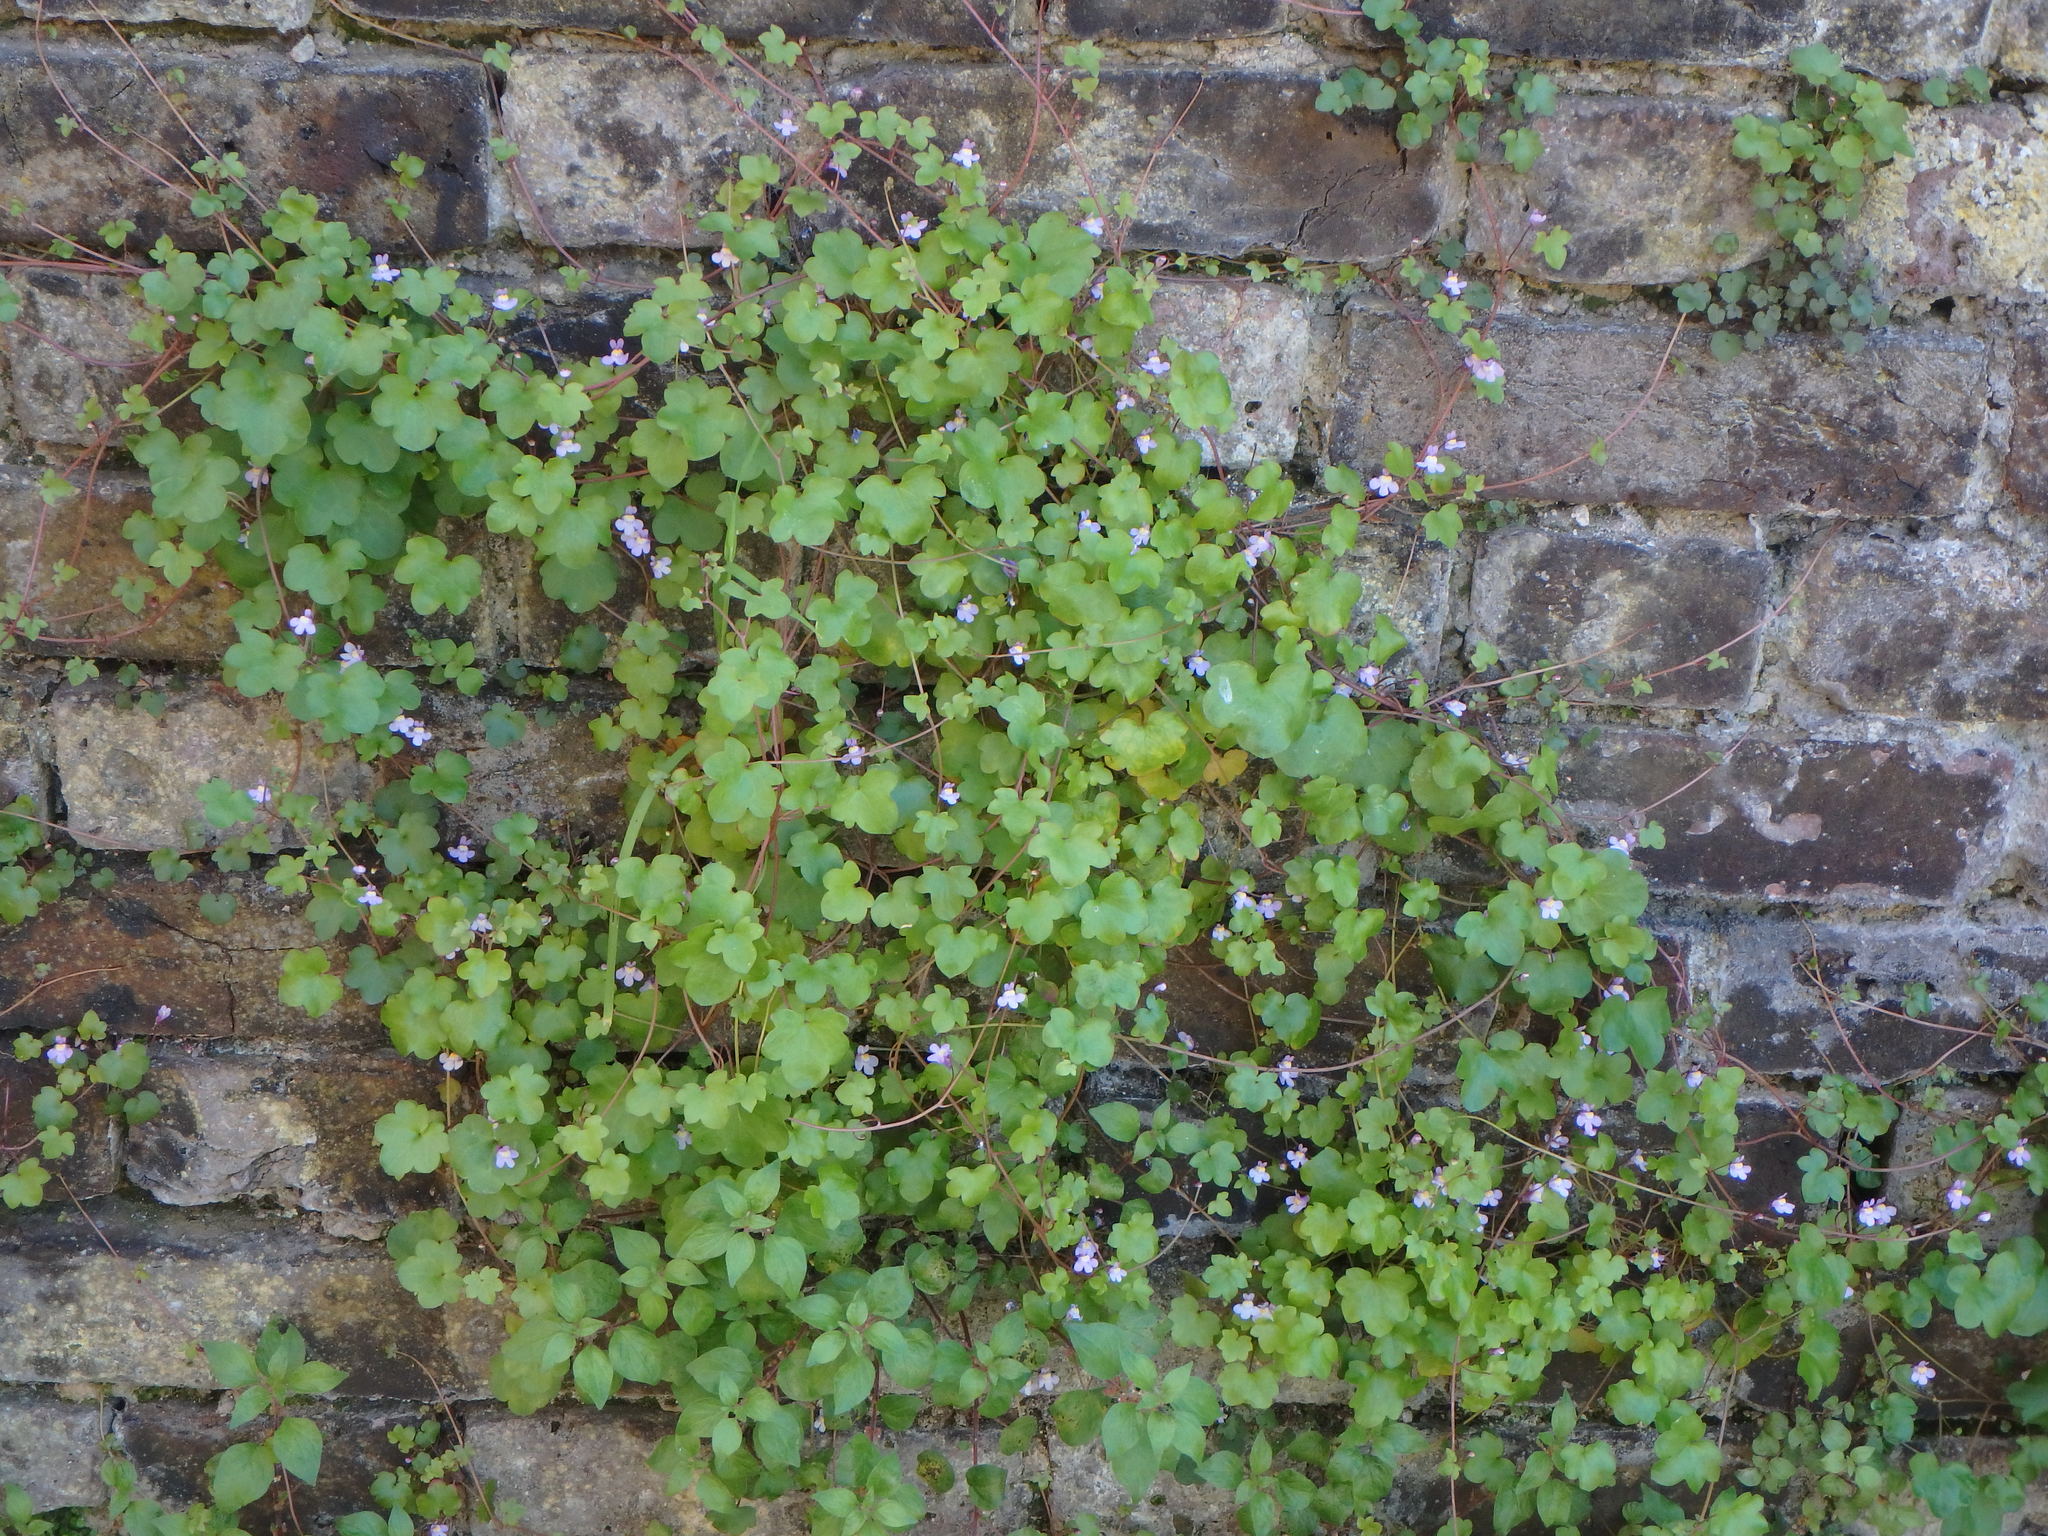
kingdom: Plantae
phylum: Tracheophyta
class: Magnoliopsida
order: Lamiales
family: Plantaginaceae
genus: Cymbalaria
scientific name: Cymbalaria muralis
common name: Ivy-leaved toadflax
